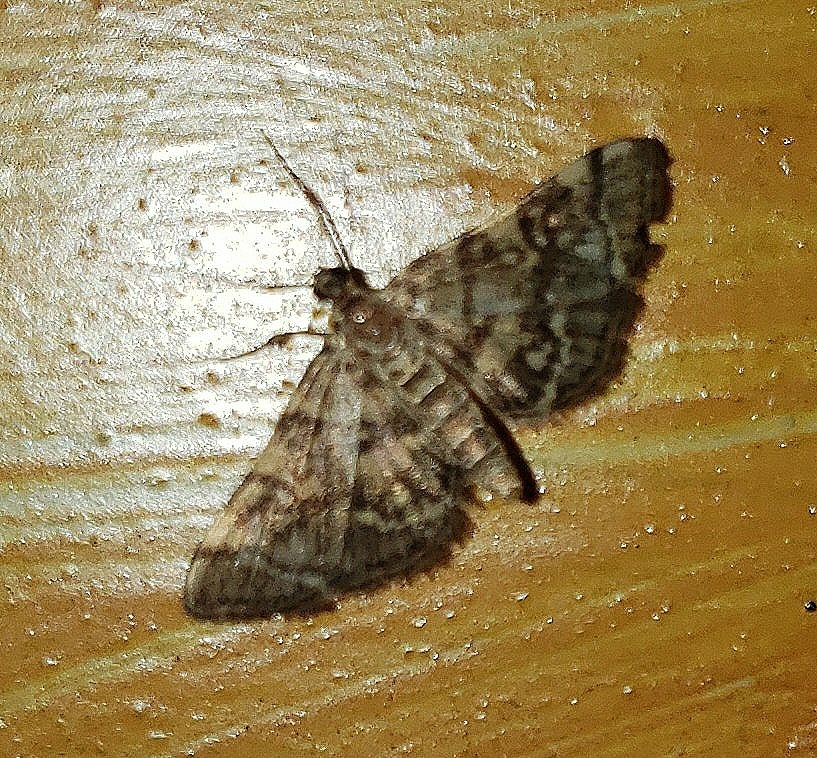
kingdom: Animalia
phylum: Arthropoda
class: Insecta
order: Lepidoptera
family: Crambidae
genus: Apogeshna
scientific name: Apogeshna stenialis
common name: Checkered apogeshna moth
